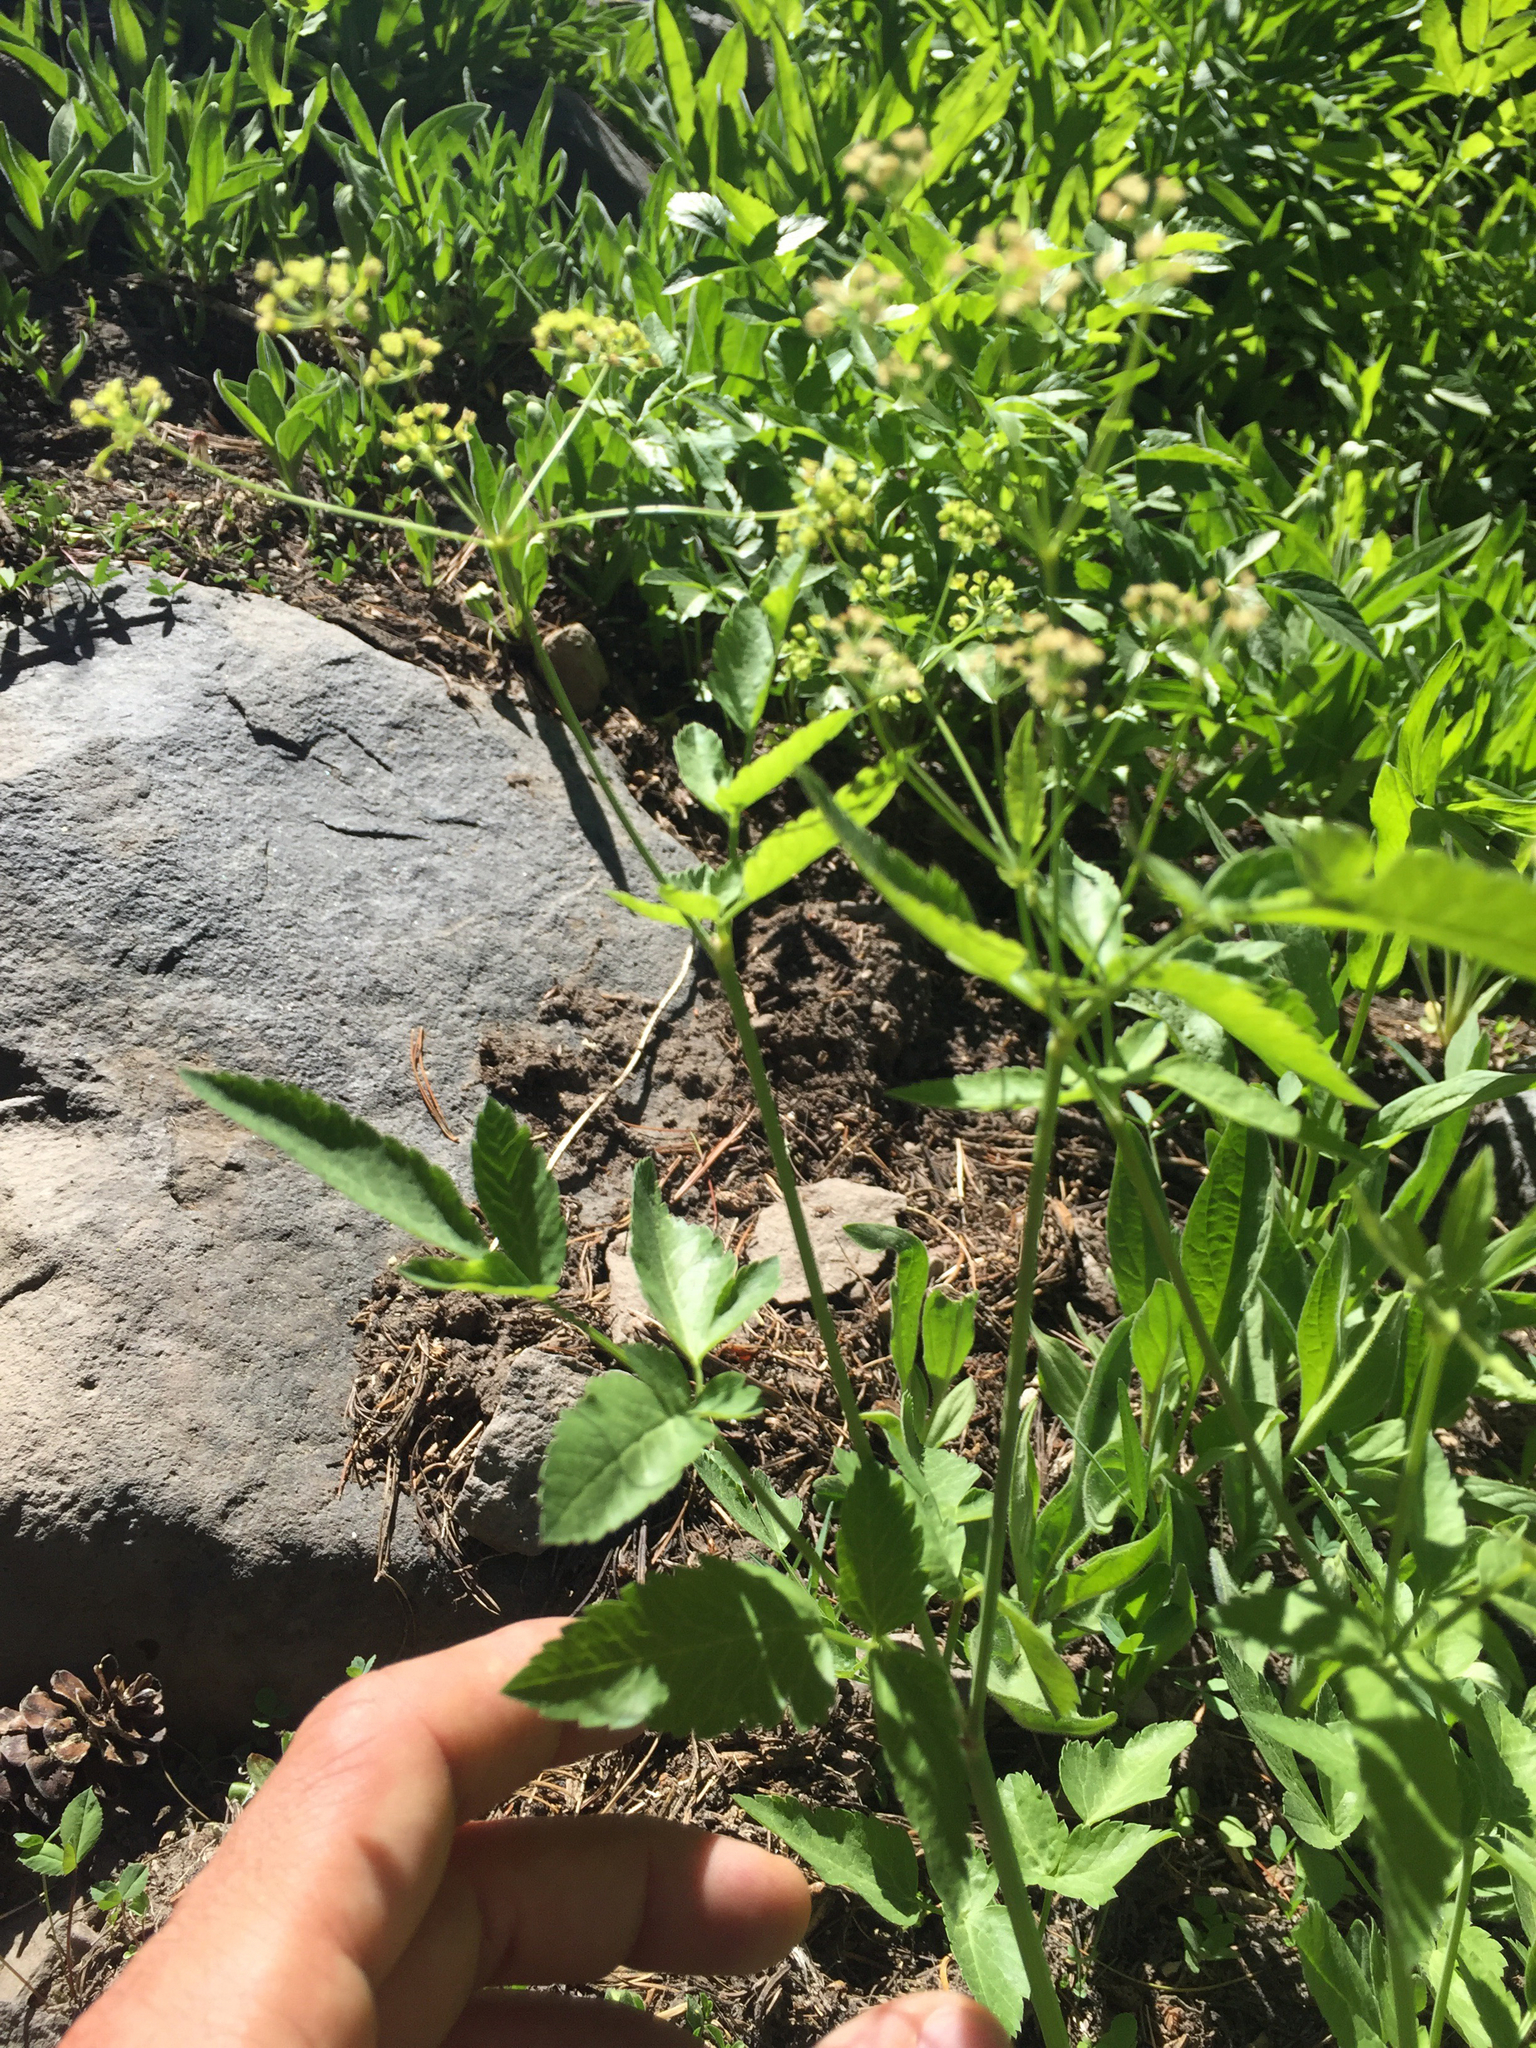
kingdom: Plantae
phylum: Tracheophyta
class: Magnoliopsida
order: Apiales
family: Apiaceae
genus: Angelica
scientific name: Angelica breweri
